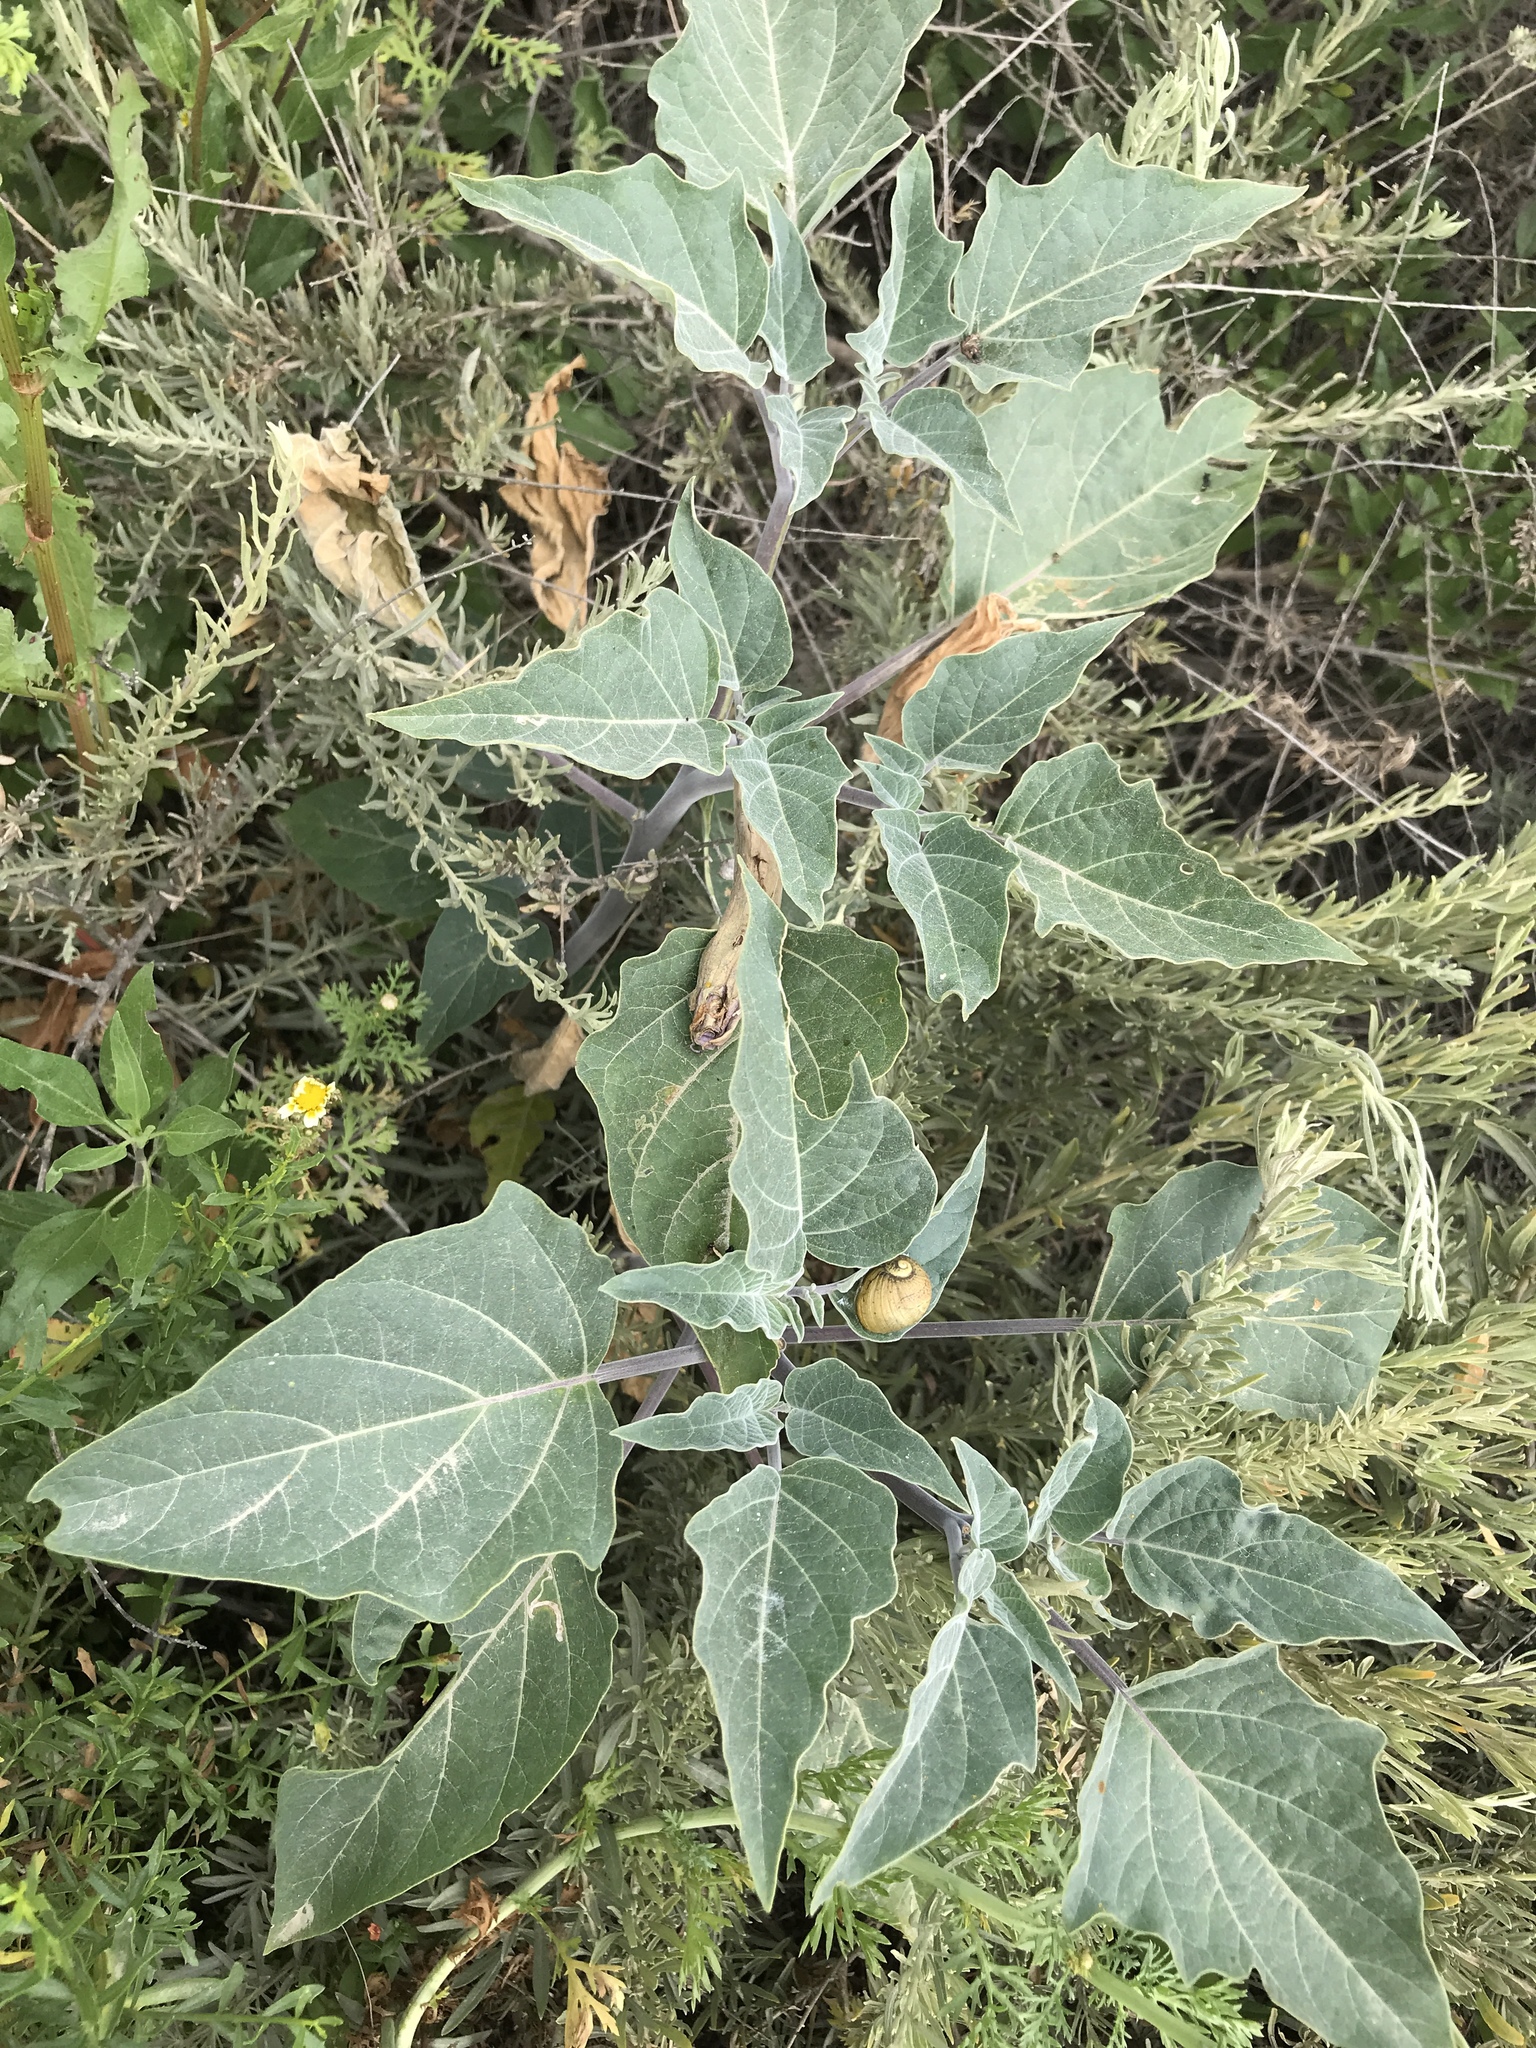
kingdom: Plantae
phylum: Tracheophyta
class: Magnoliopsida
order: Solanales
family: Solanaceae
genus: Datura
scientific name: Datura wrightii
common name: Sacred thorn-apple
